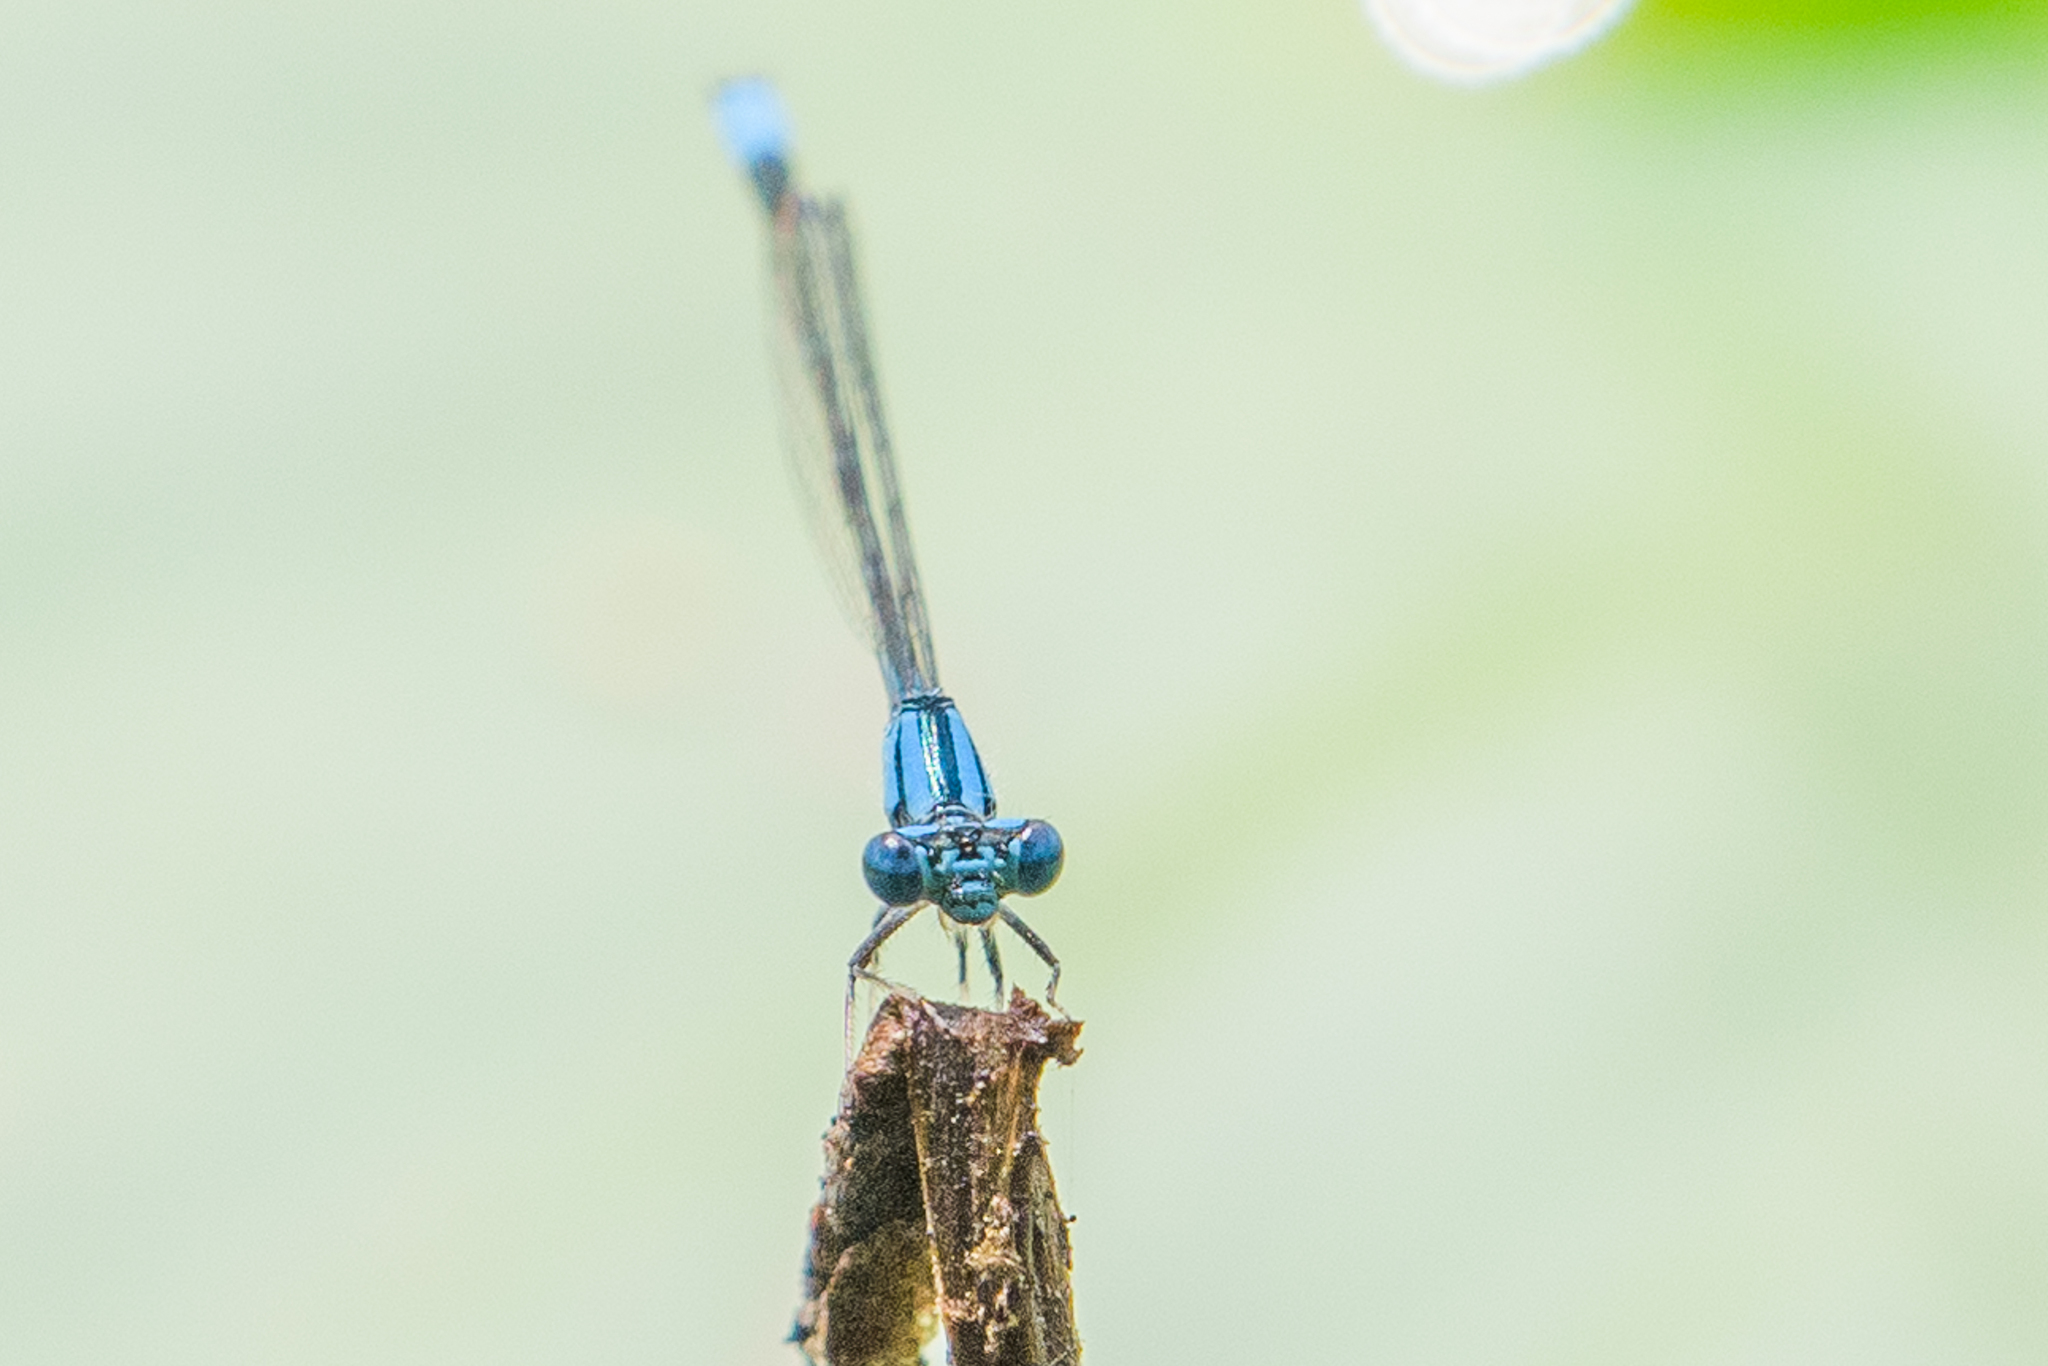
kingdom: Animalia
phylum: Arthropoda
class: Insecta
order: Odonata
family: Coenagrionidae
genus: Enallagma
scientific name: Enallagma traviatum
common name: Slender bluet
